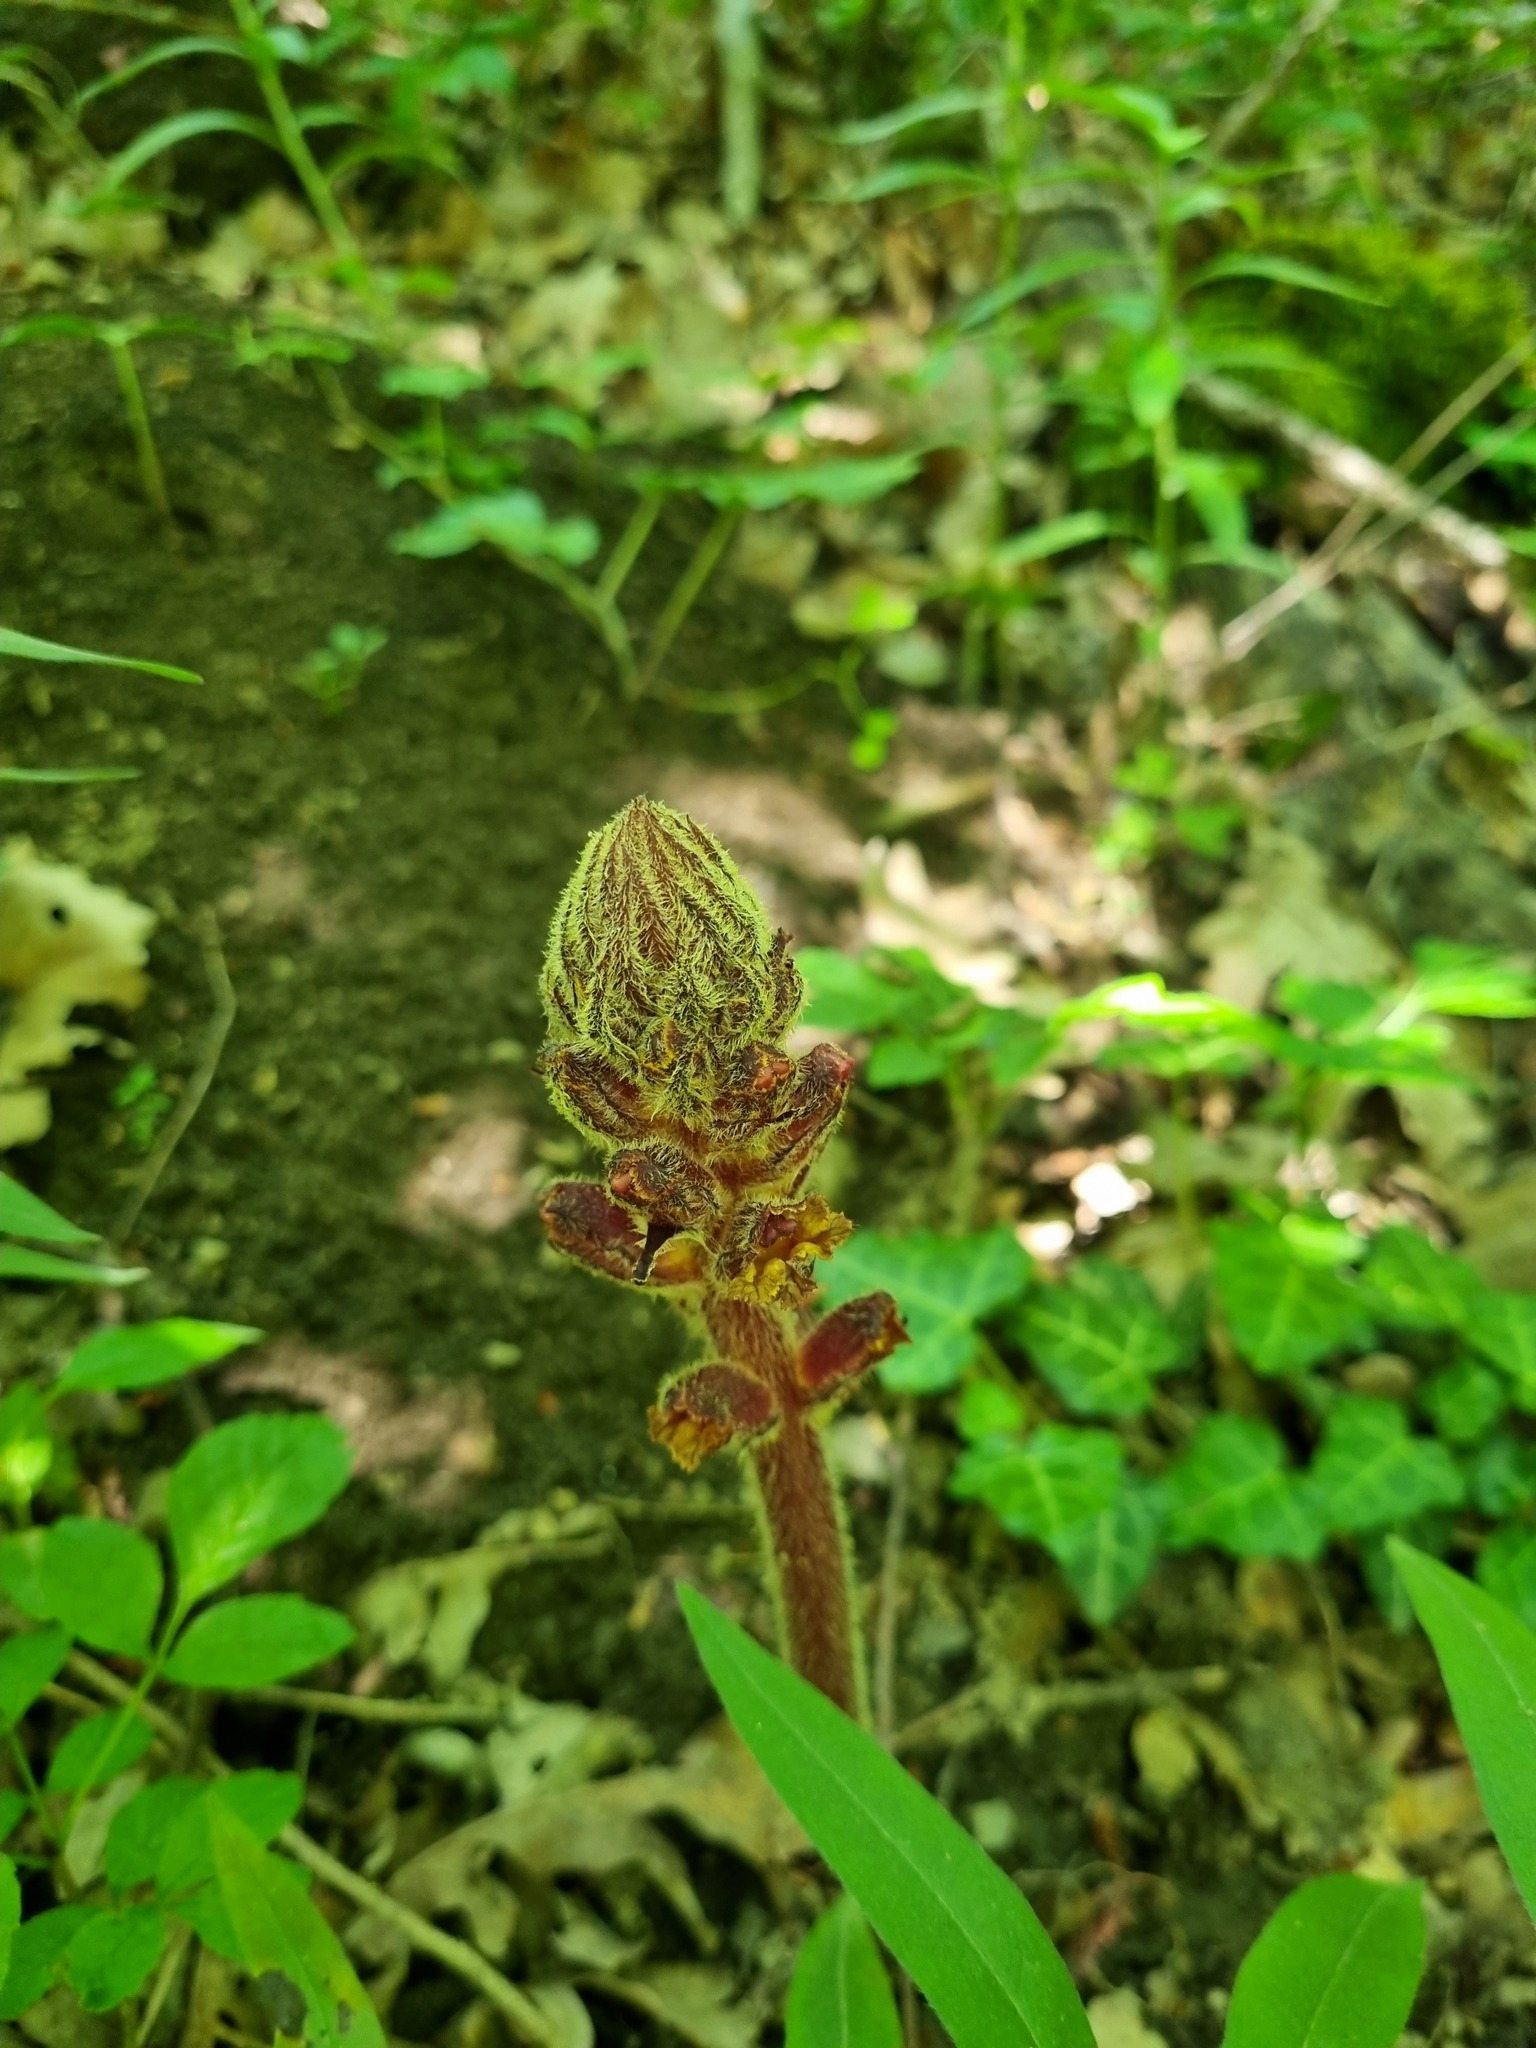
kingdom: Plantae
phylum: Tracheophyta
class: Magnoliopsida
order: Lamiales
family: Orobanchaceae
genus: Orobanche
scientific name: Orobanche laxissima
